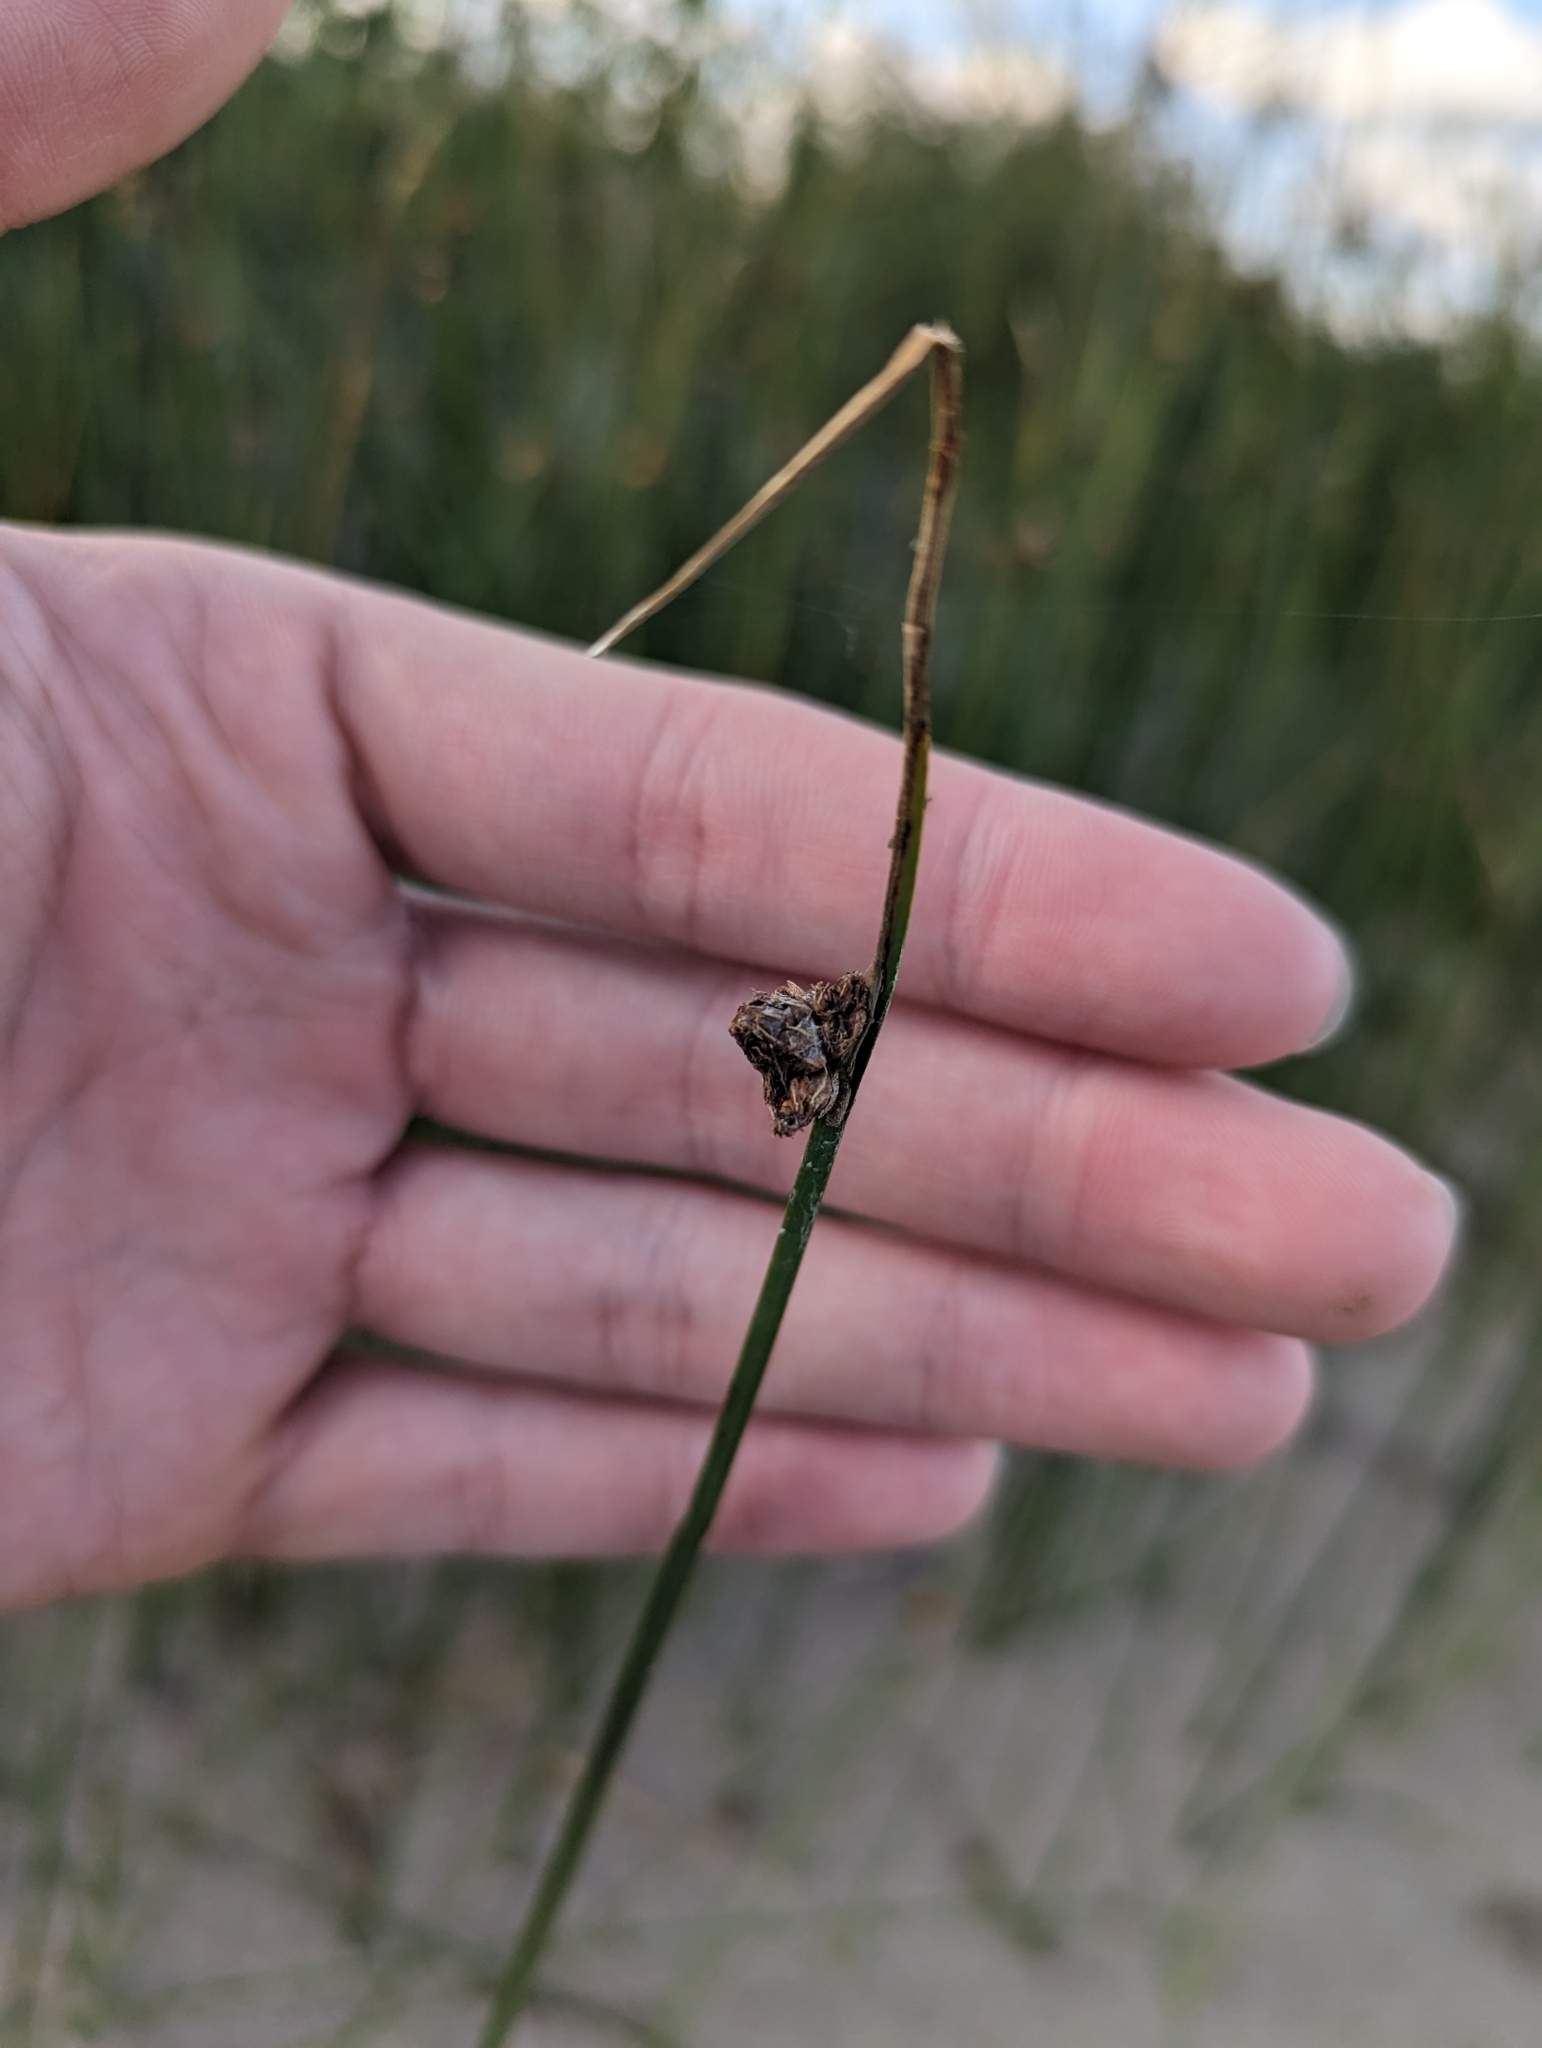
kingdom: Plantae
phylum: Tracheophyta
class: Liliopsida
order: Poales
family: Cyperaceae
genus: Schoenoplectus
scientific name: Schoenoplectus pungens
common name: Sharp club-rush
